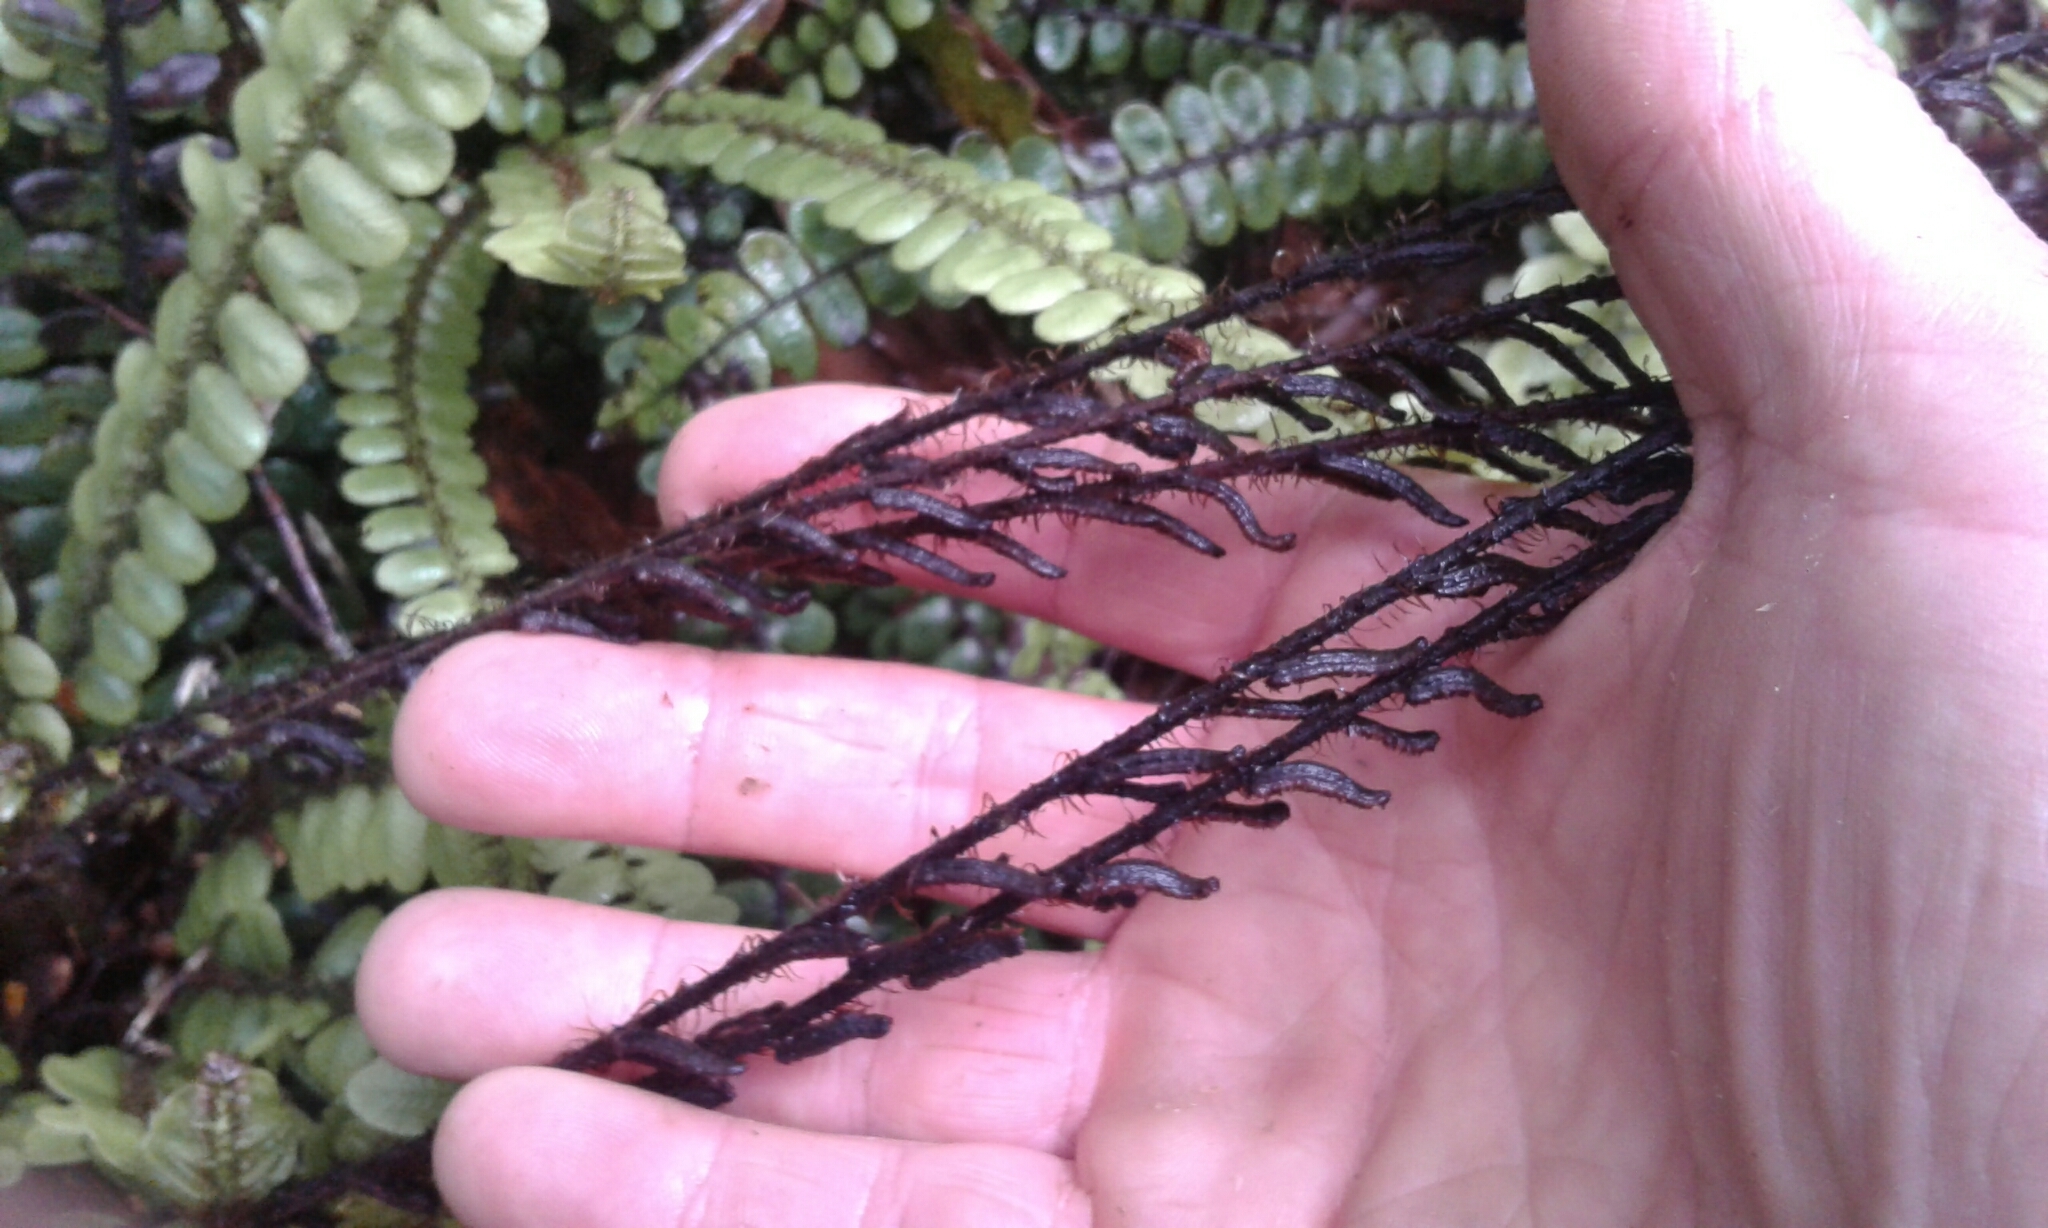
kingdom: Plantae
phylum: Tracheophyta
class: Polypodiopsida
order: Polypodiales
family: Blechnaceae
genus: Cranfillia
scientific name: Cranfillia fluviatilis
